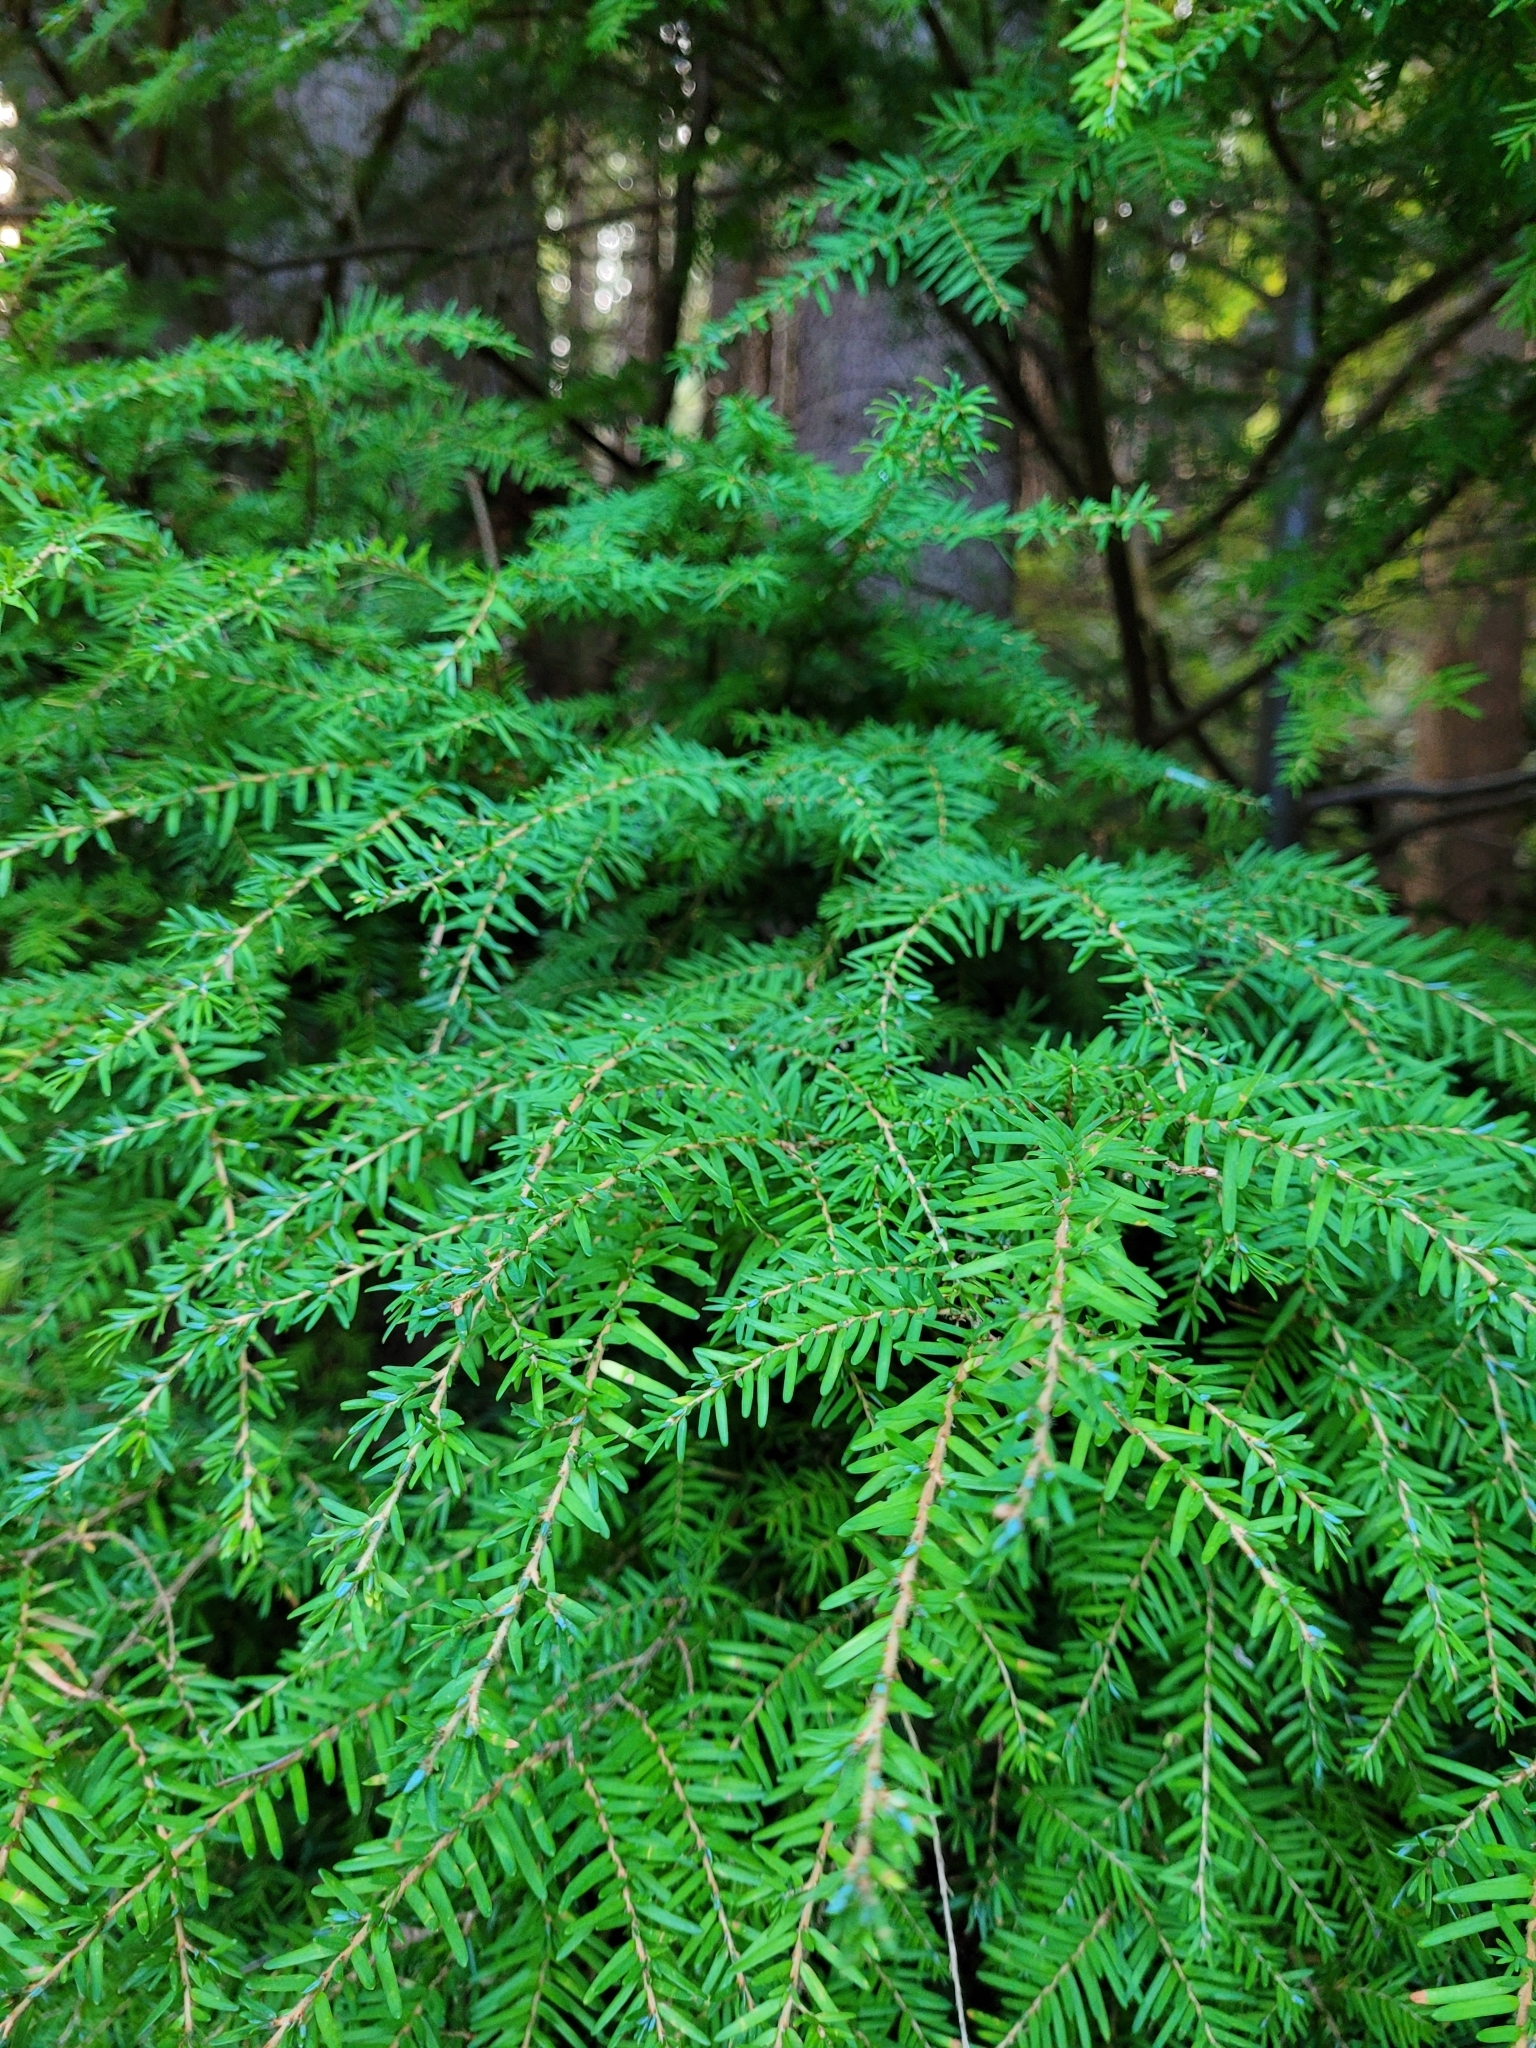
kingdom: Plantae
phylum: Tracheophyta
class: Pinopsida
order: Pinales
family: Pinaceae
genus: Tsuga
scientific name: Tsuga heterophylla
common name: Western hemlock
